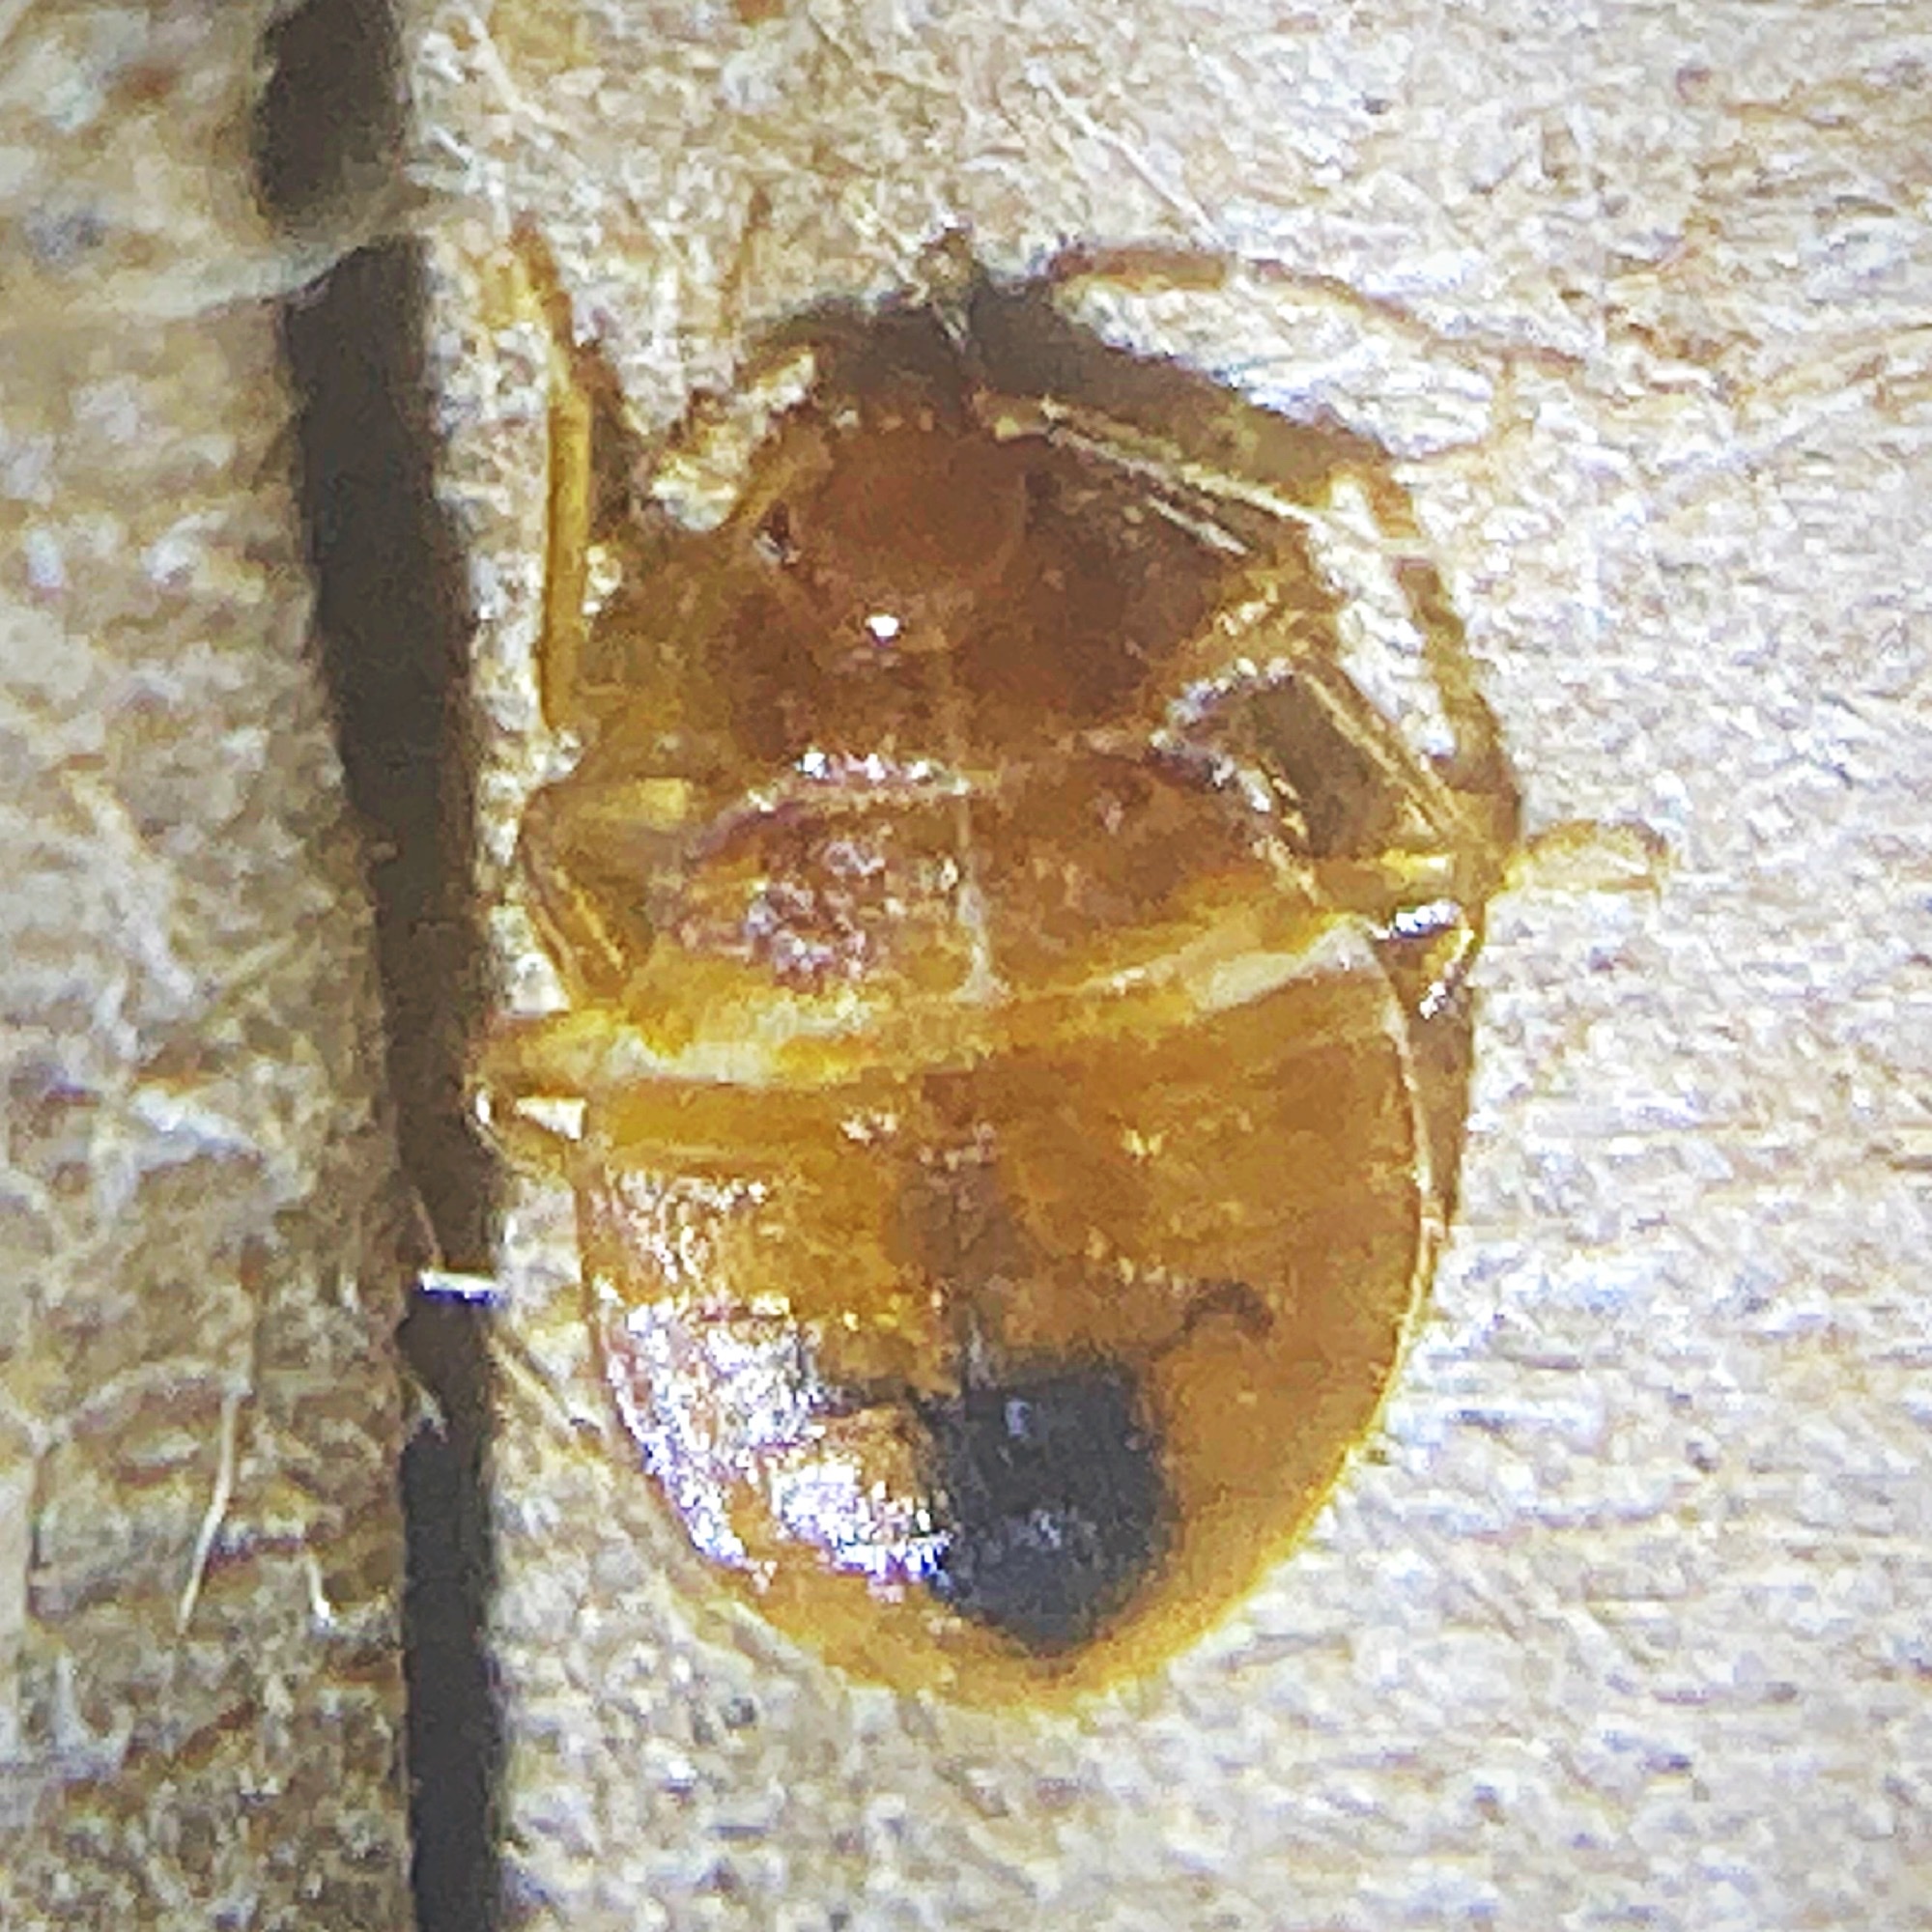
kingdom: Animalia
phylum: Arthropoda
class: Insecta
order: Hemiptera
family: Cimicidae
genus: Cimex
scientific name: Cimex lectularius
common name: Bed bug
